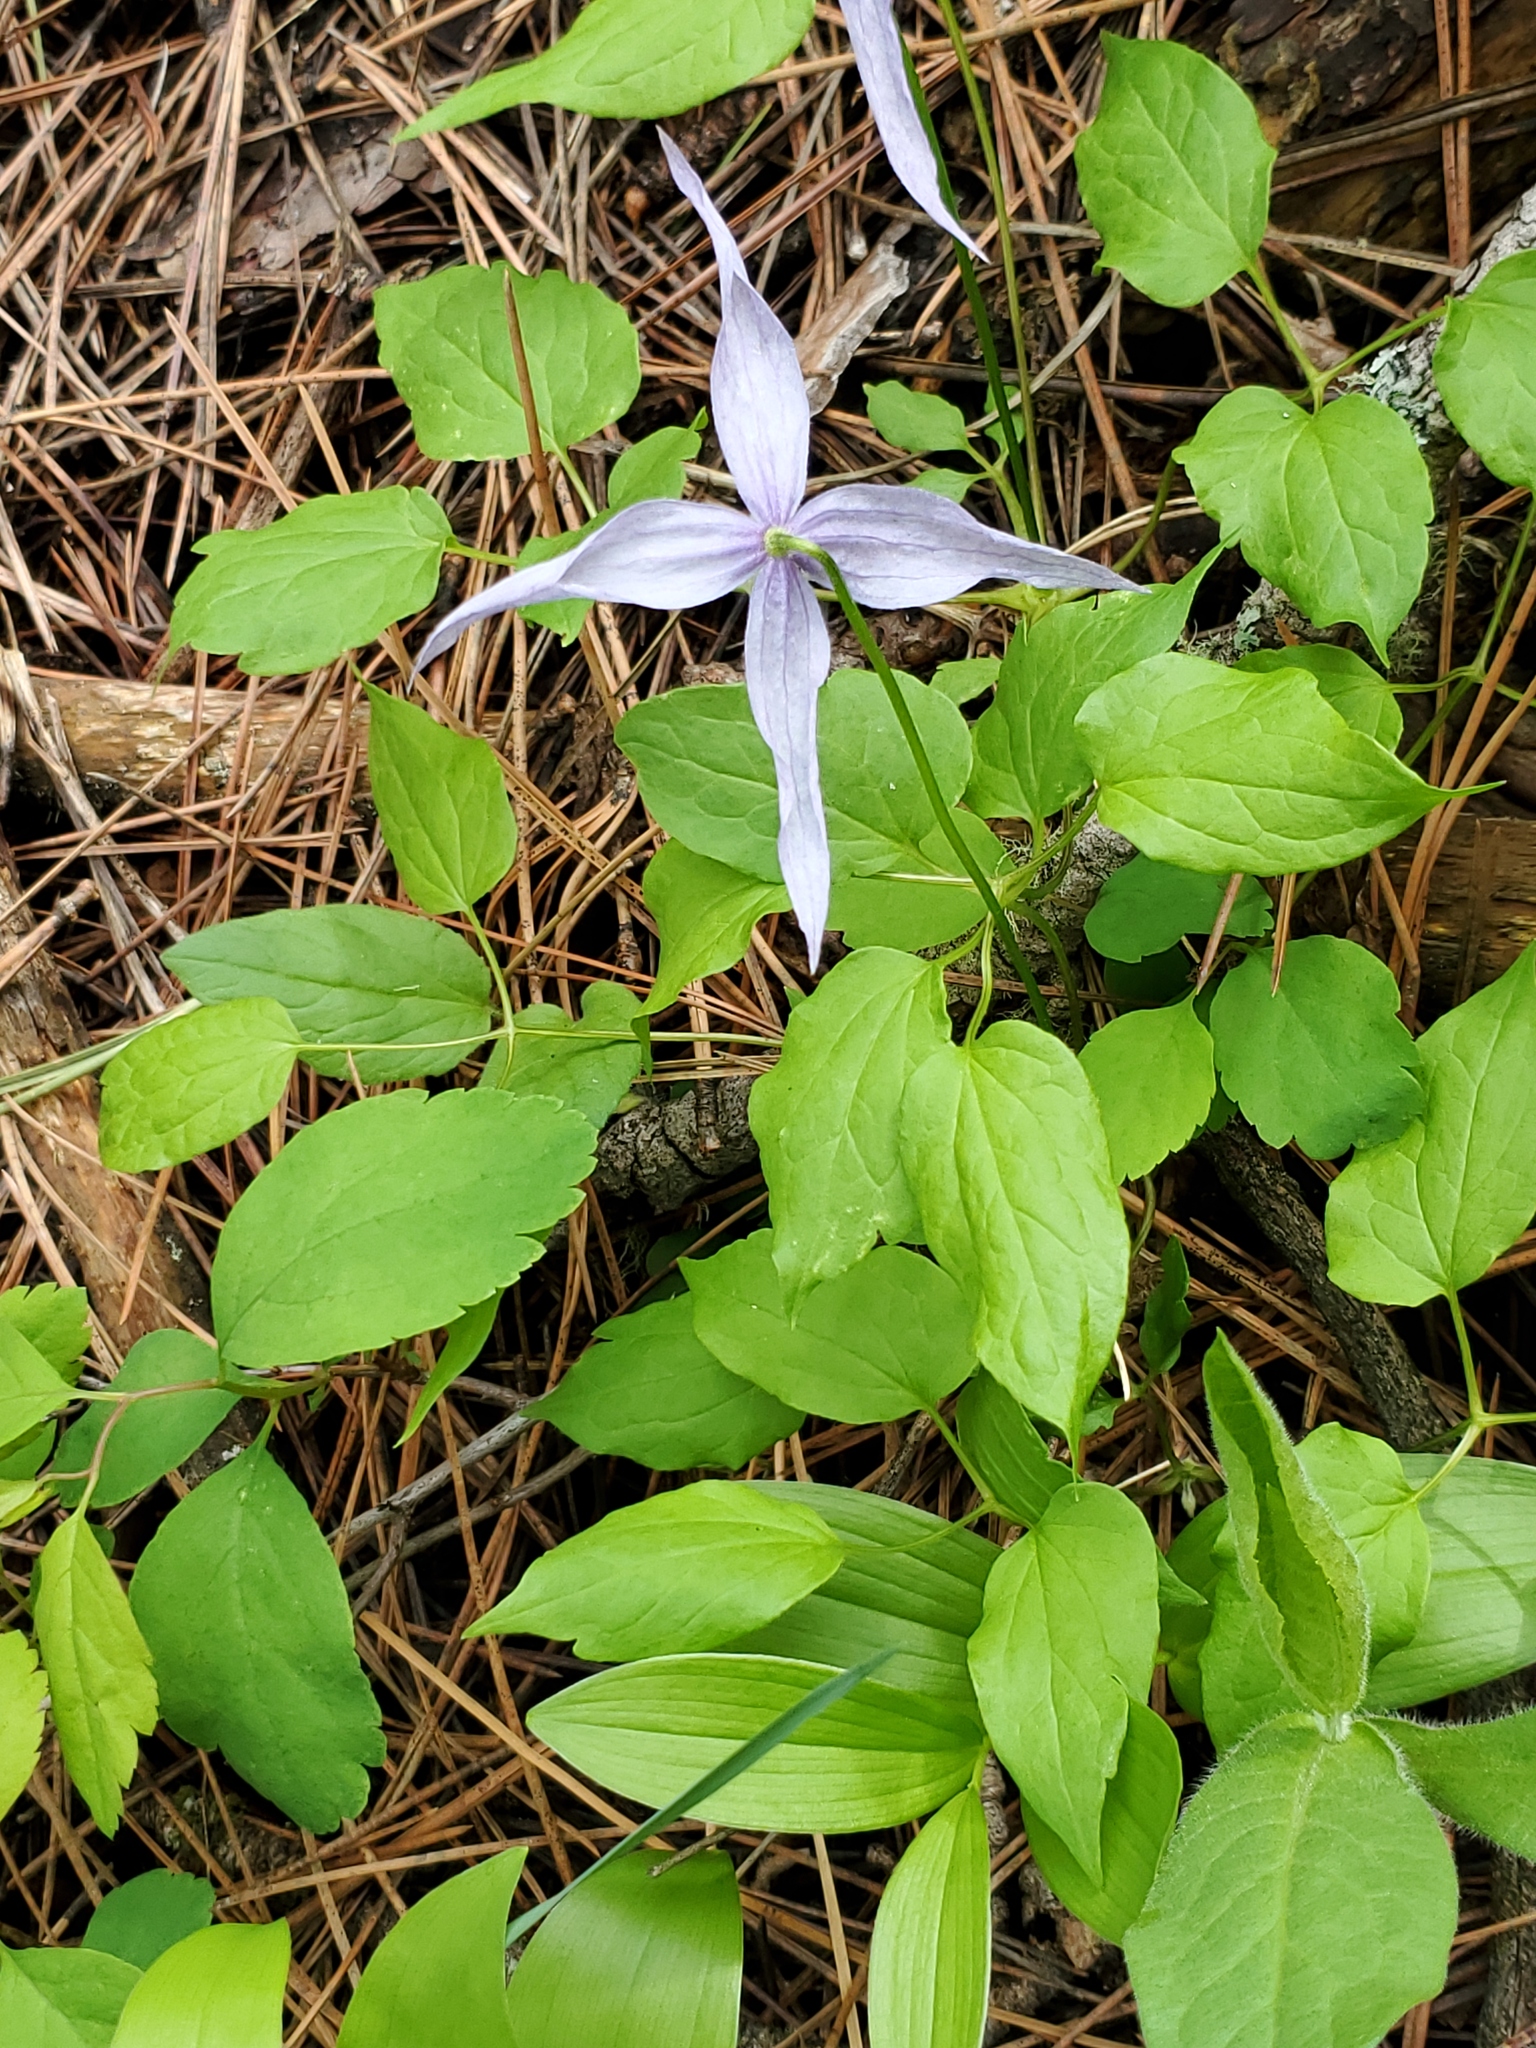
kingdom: Plantae
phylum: Tracheophyta
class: Magnoliopsida
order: Ranunculales
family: Ranunculaceae
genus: Clematis
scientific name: Clematis occidentalis
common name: Purple clematis
